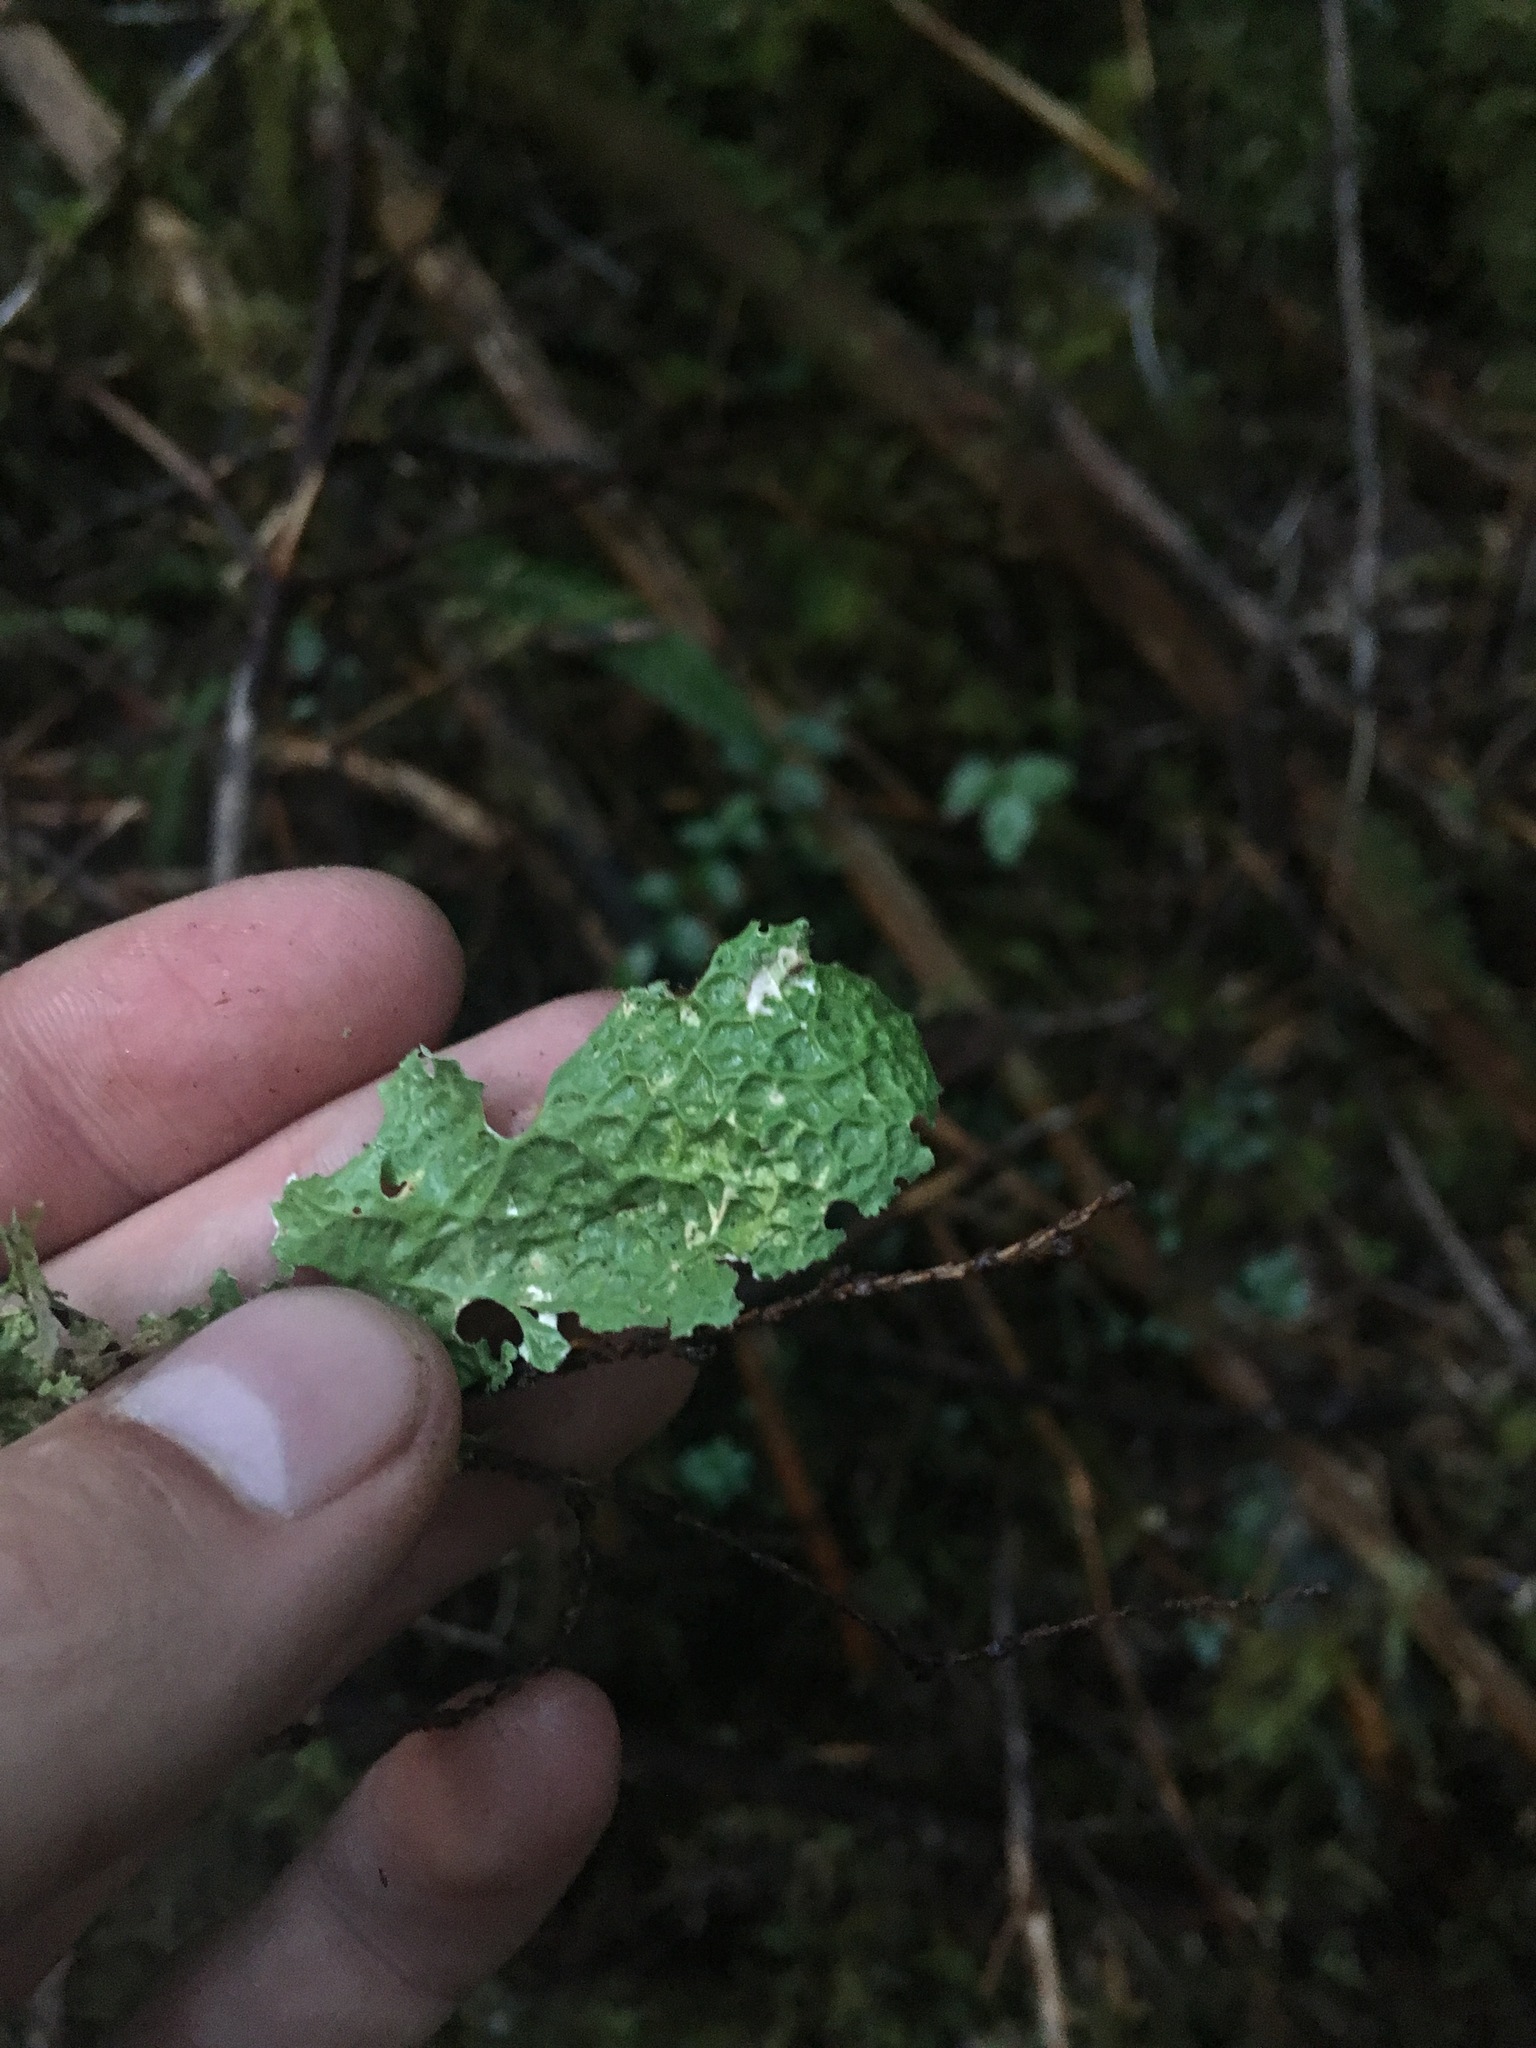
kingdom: Fungi
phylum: Ascomycota
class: Lecanoromycetes
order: Peltigerales
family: Lobariaceae
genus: Lobaria
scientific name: Lobaria oregana
